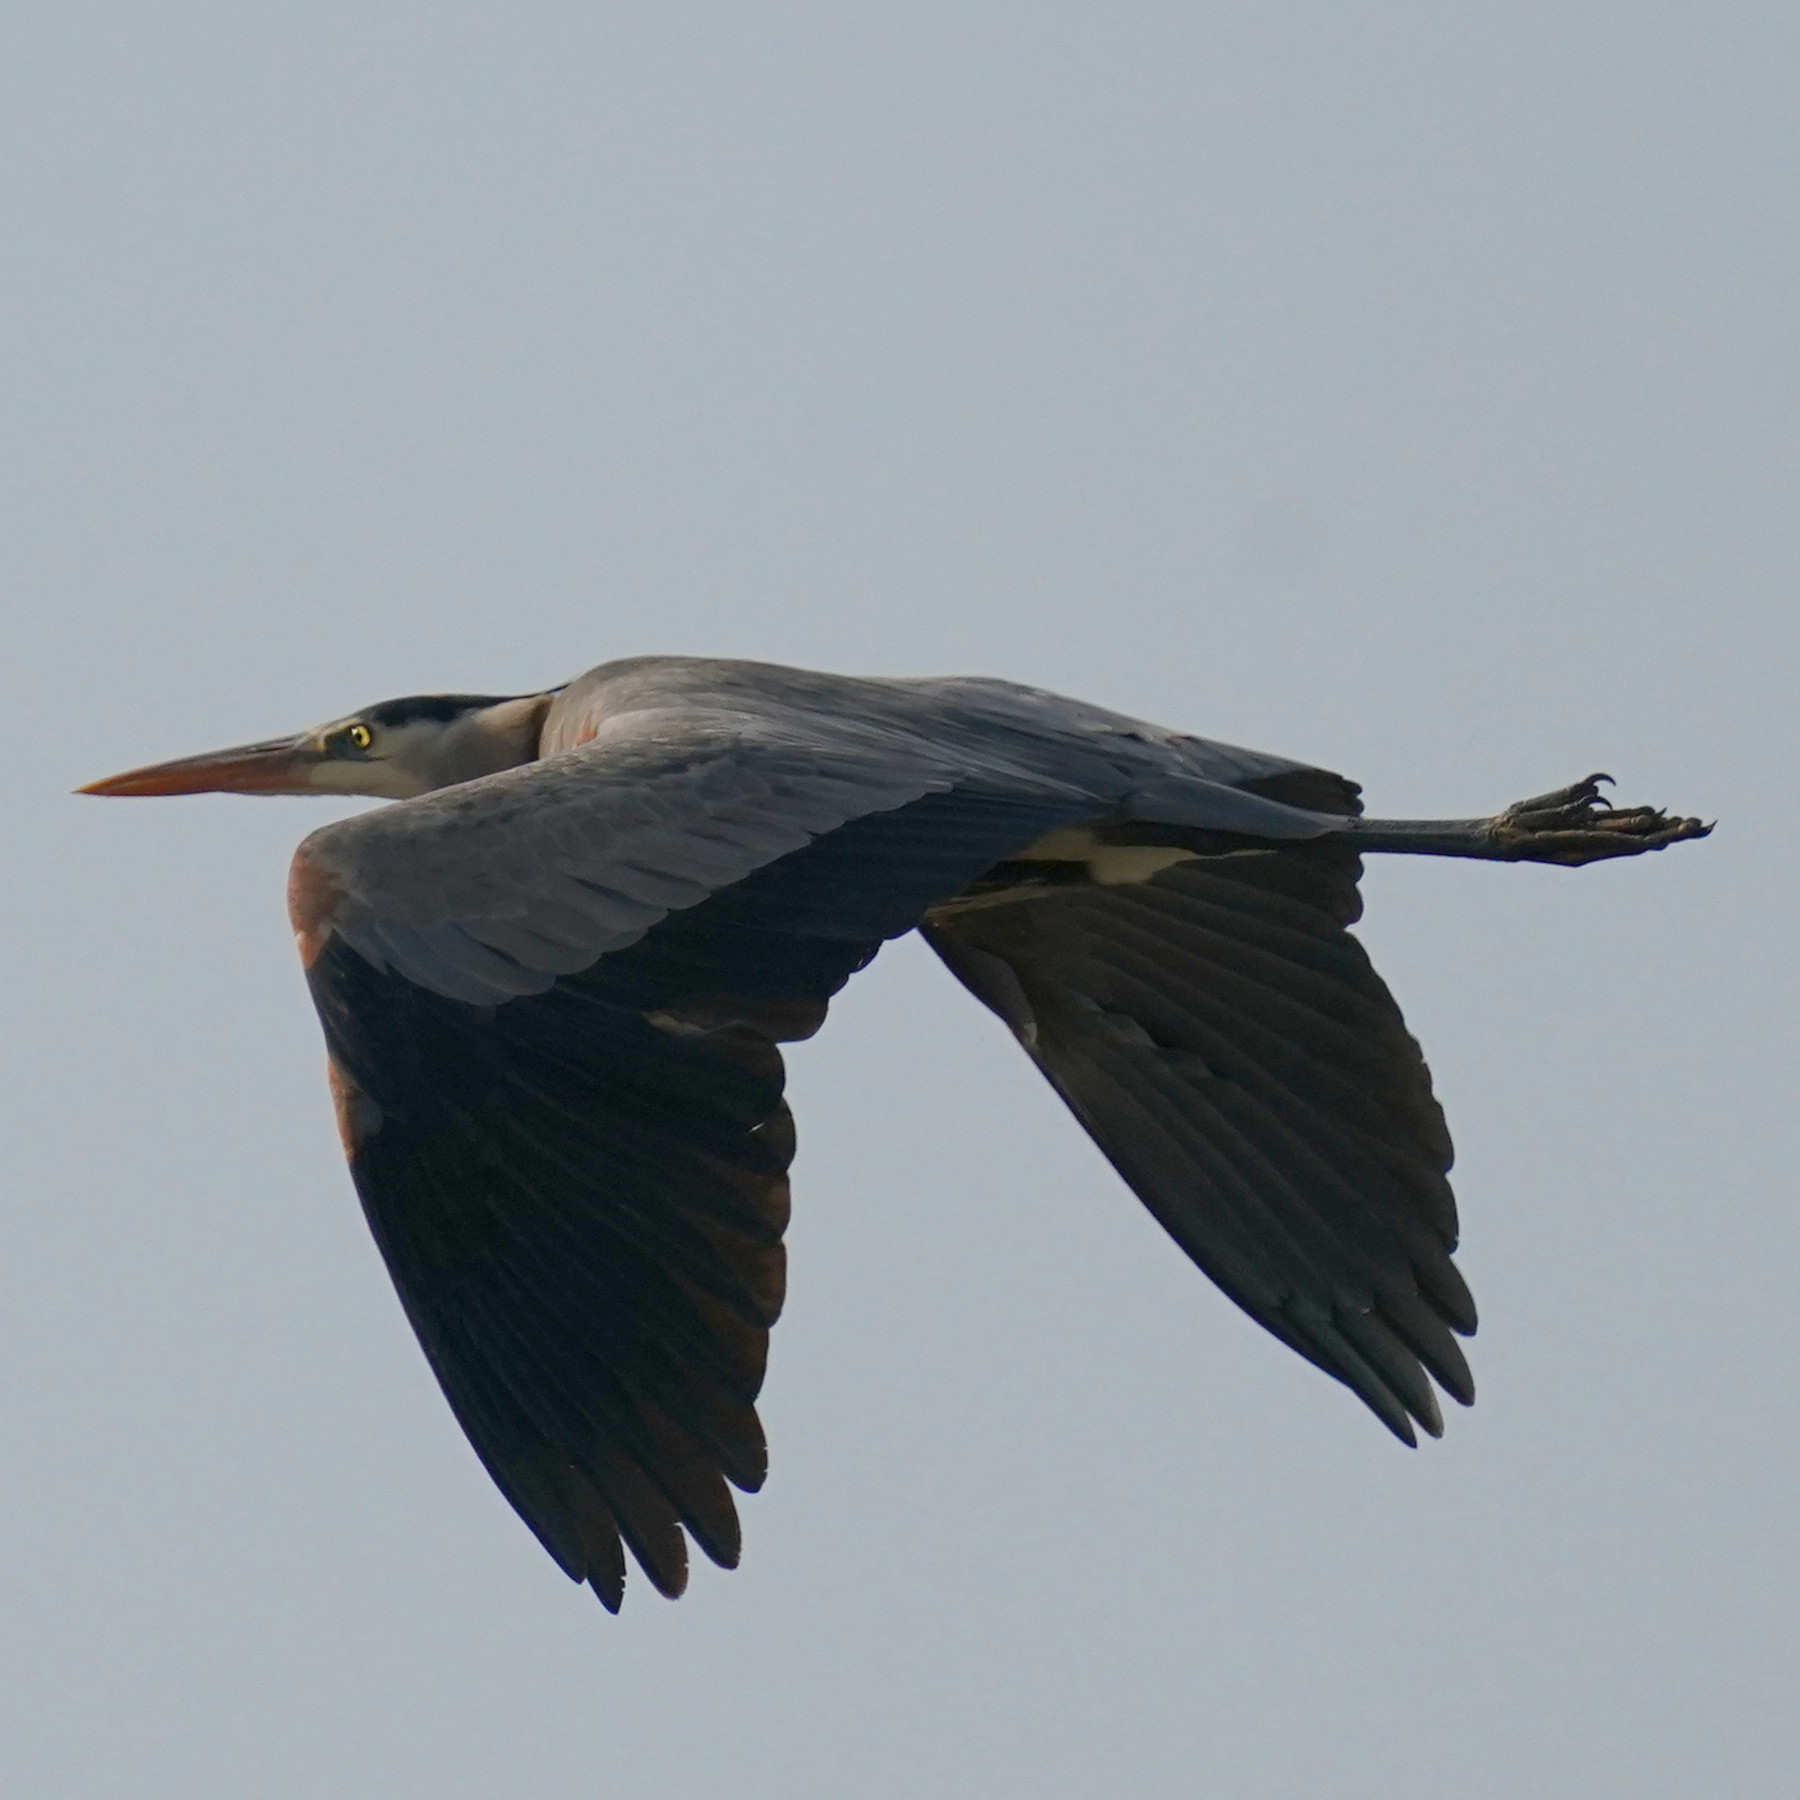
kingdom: Animalia
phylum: Chordata
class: Aves
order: Pelecaniformes
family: Ardeidae
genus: Ardea
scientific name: Ardea herodias
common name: Great blue heron
